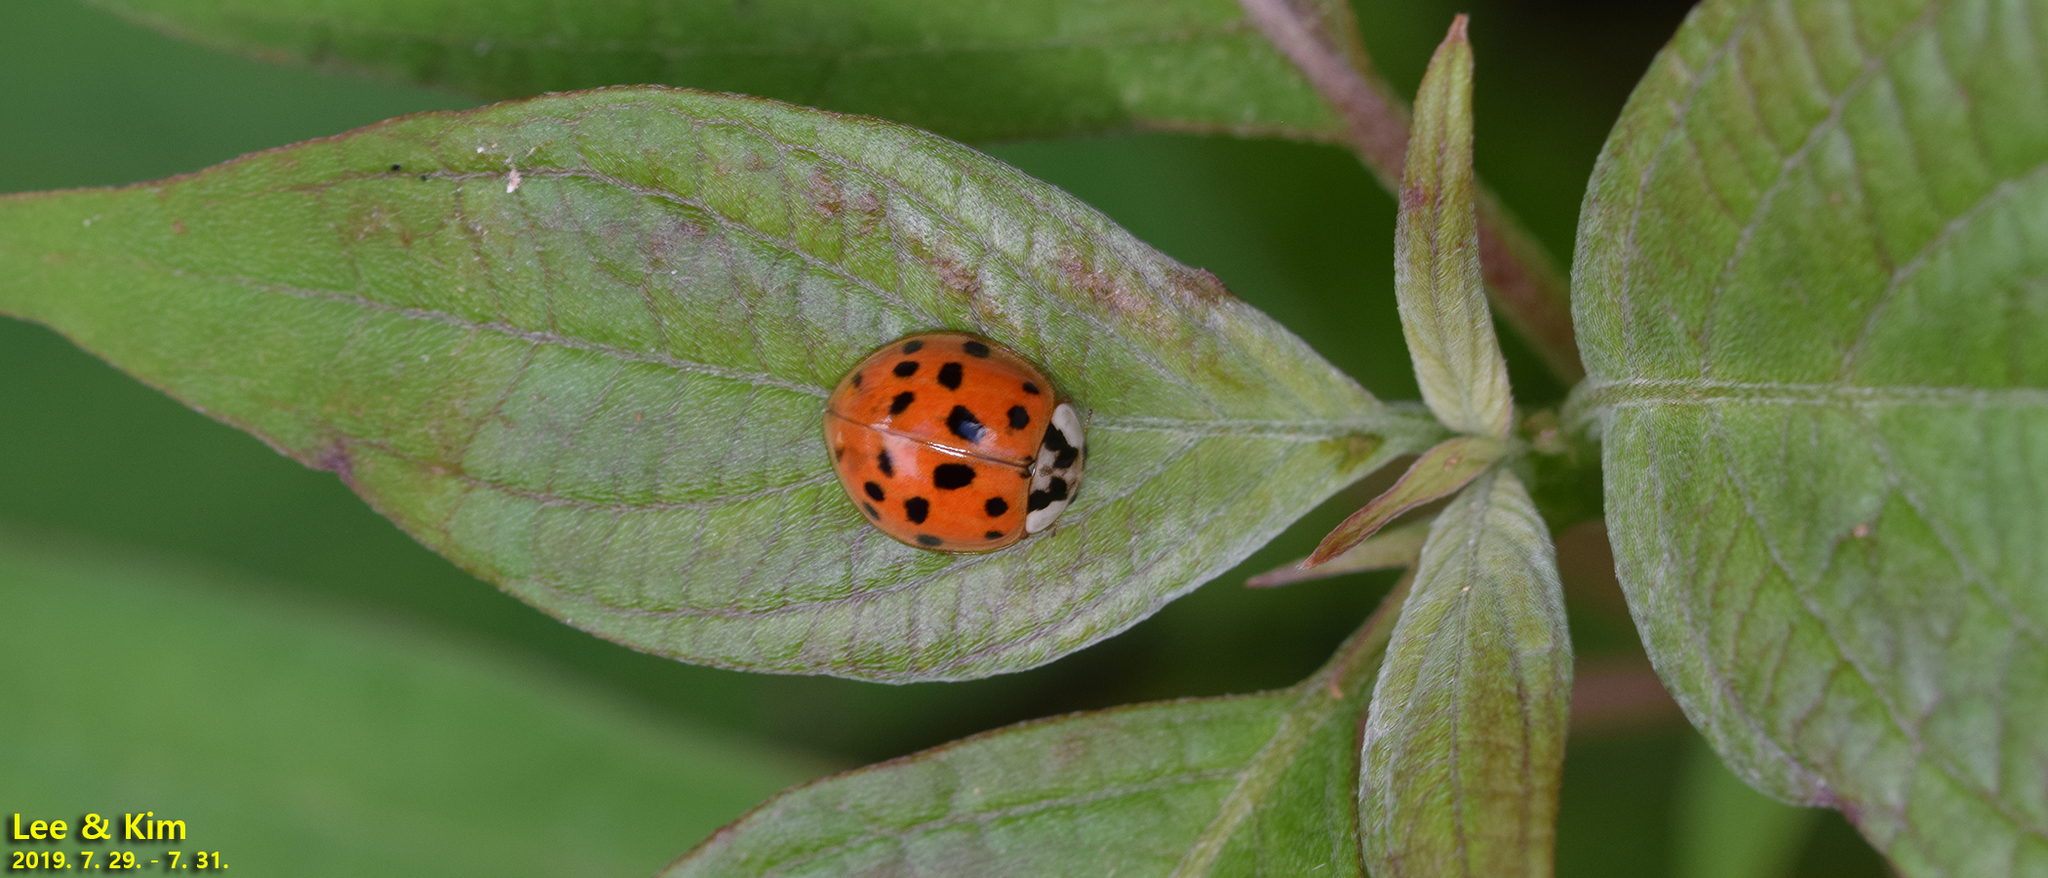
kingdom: Animalia
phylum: Arthropoda
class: Insecta
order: Coleoptera
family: Coccinellidae
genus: Harmonia
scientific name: Harmonia axyridis
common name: Harlequin ladybird
